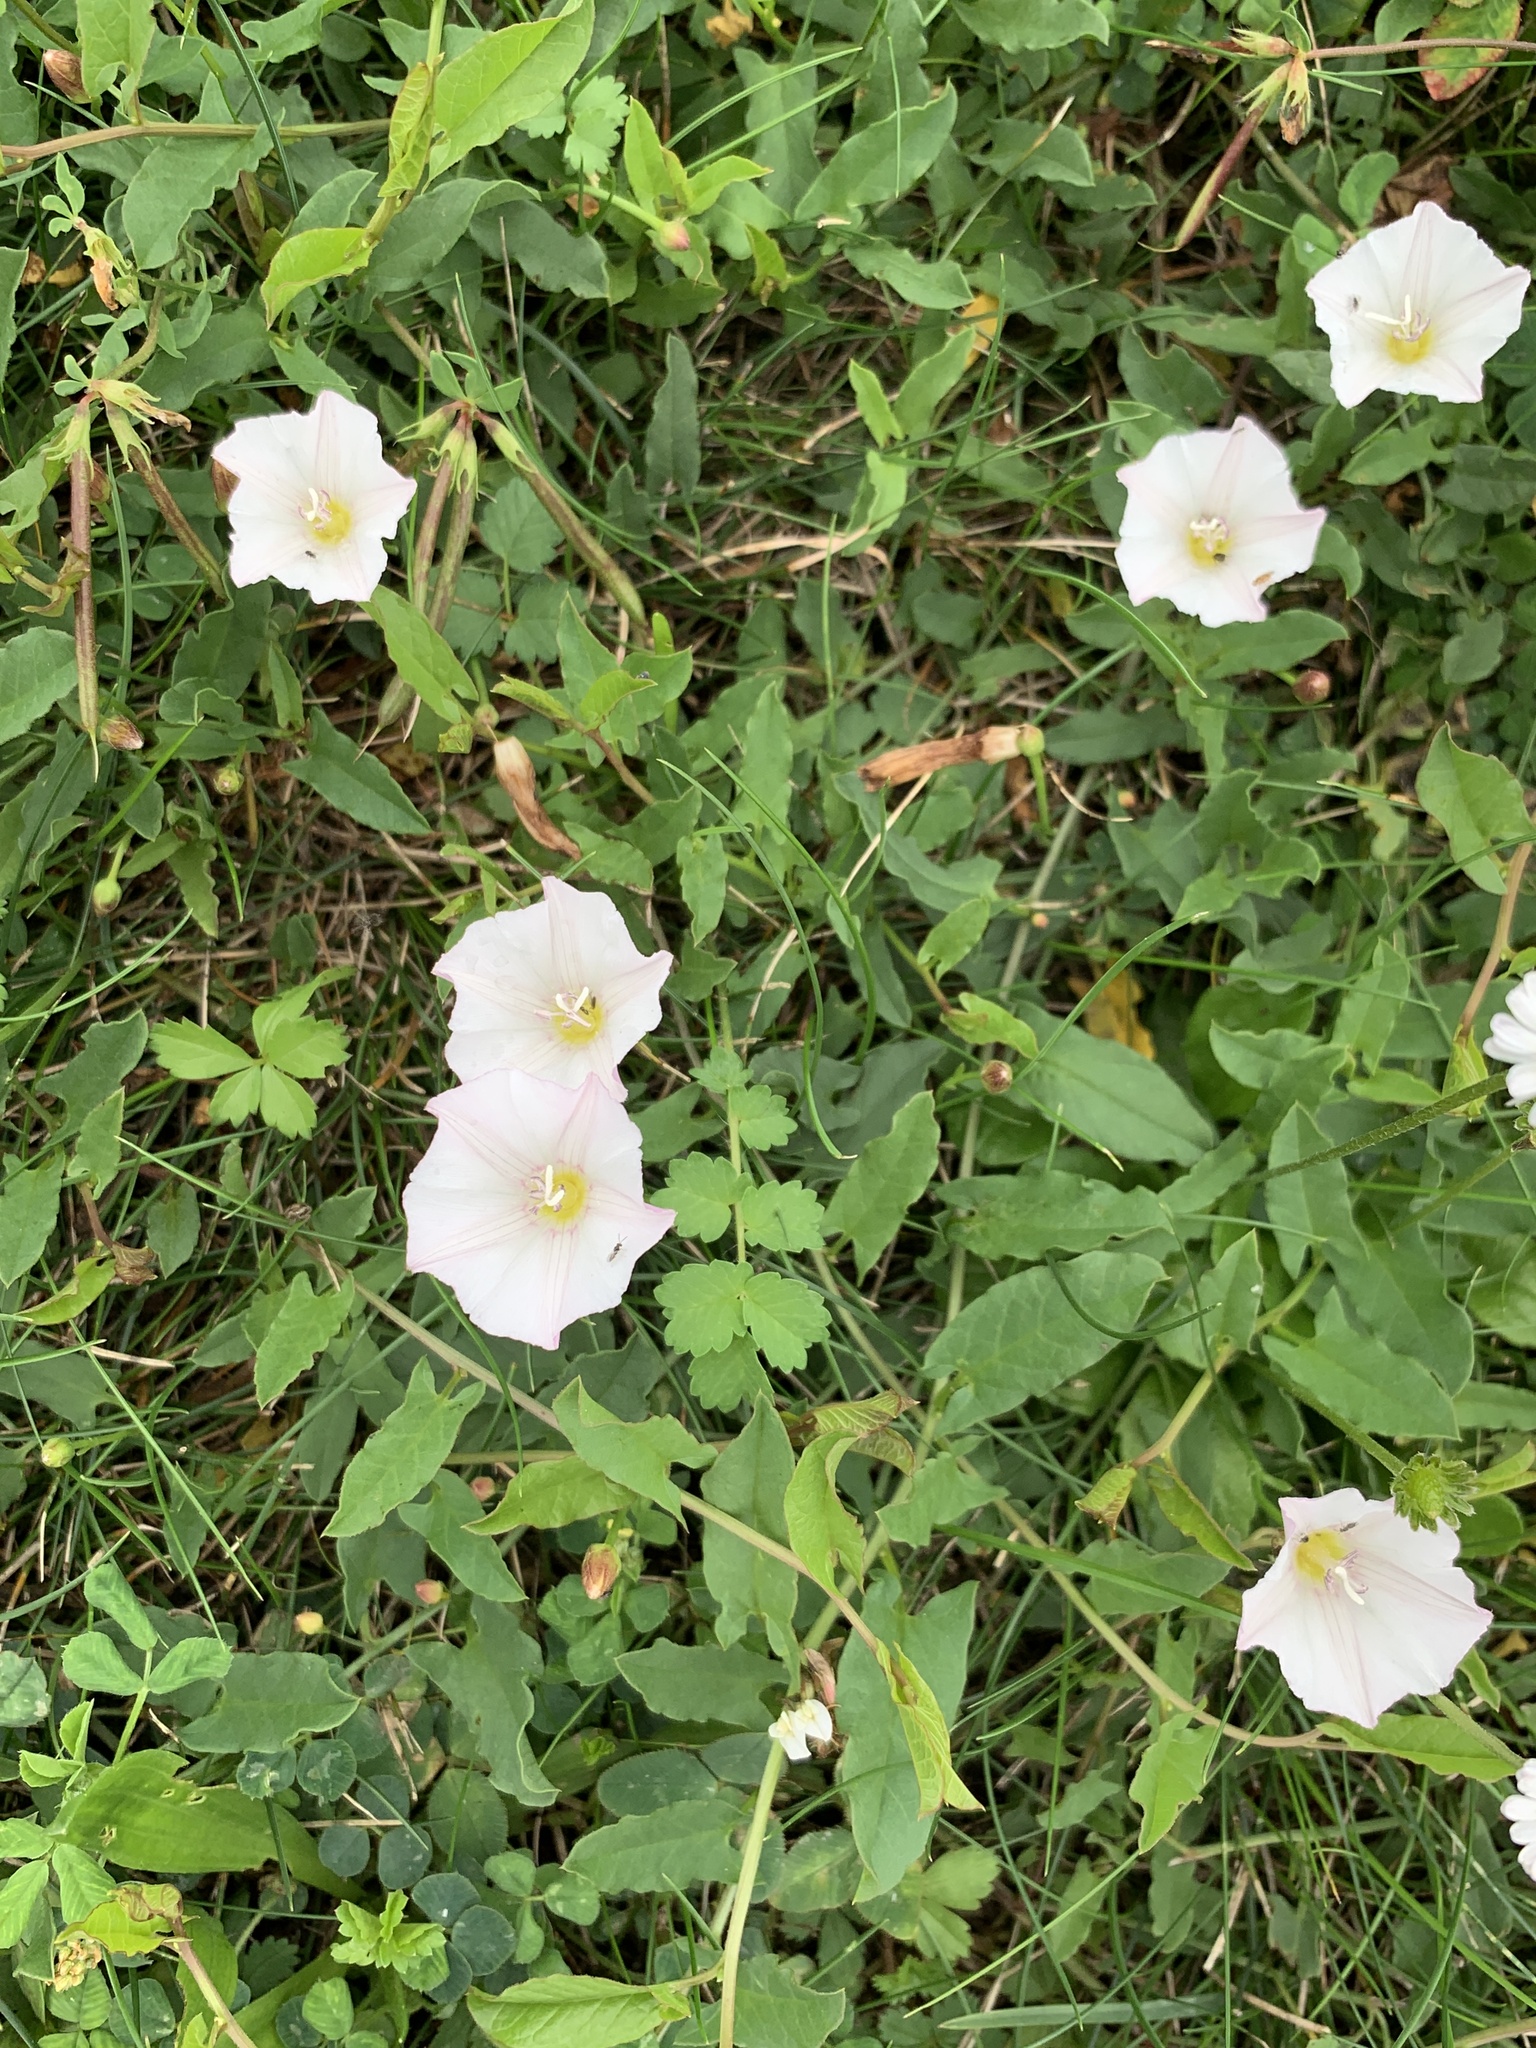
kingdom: Plantae
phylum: Tracheophyta
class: Magnoliopsida
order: Solanales
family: Convolvulaceae
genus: Convolvulus
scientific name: Convolvulus arvensis
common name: Field bindweed
